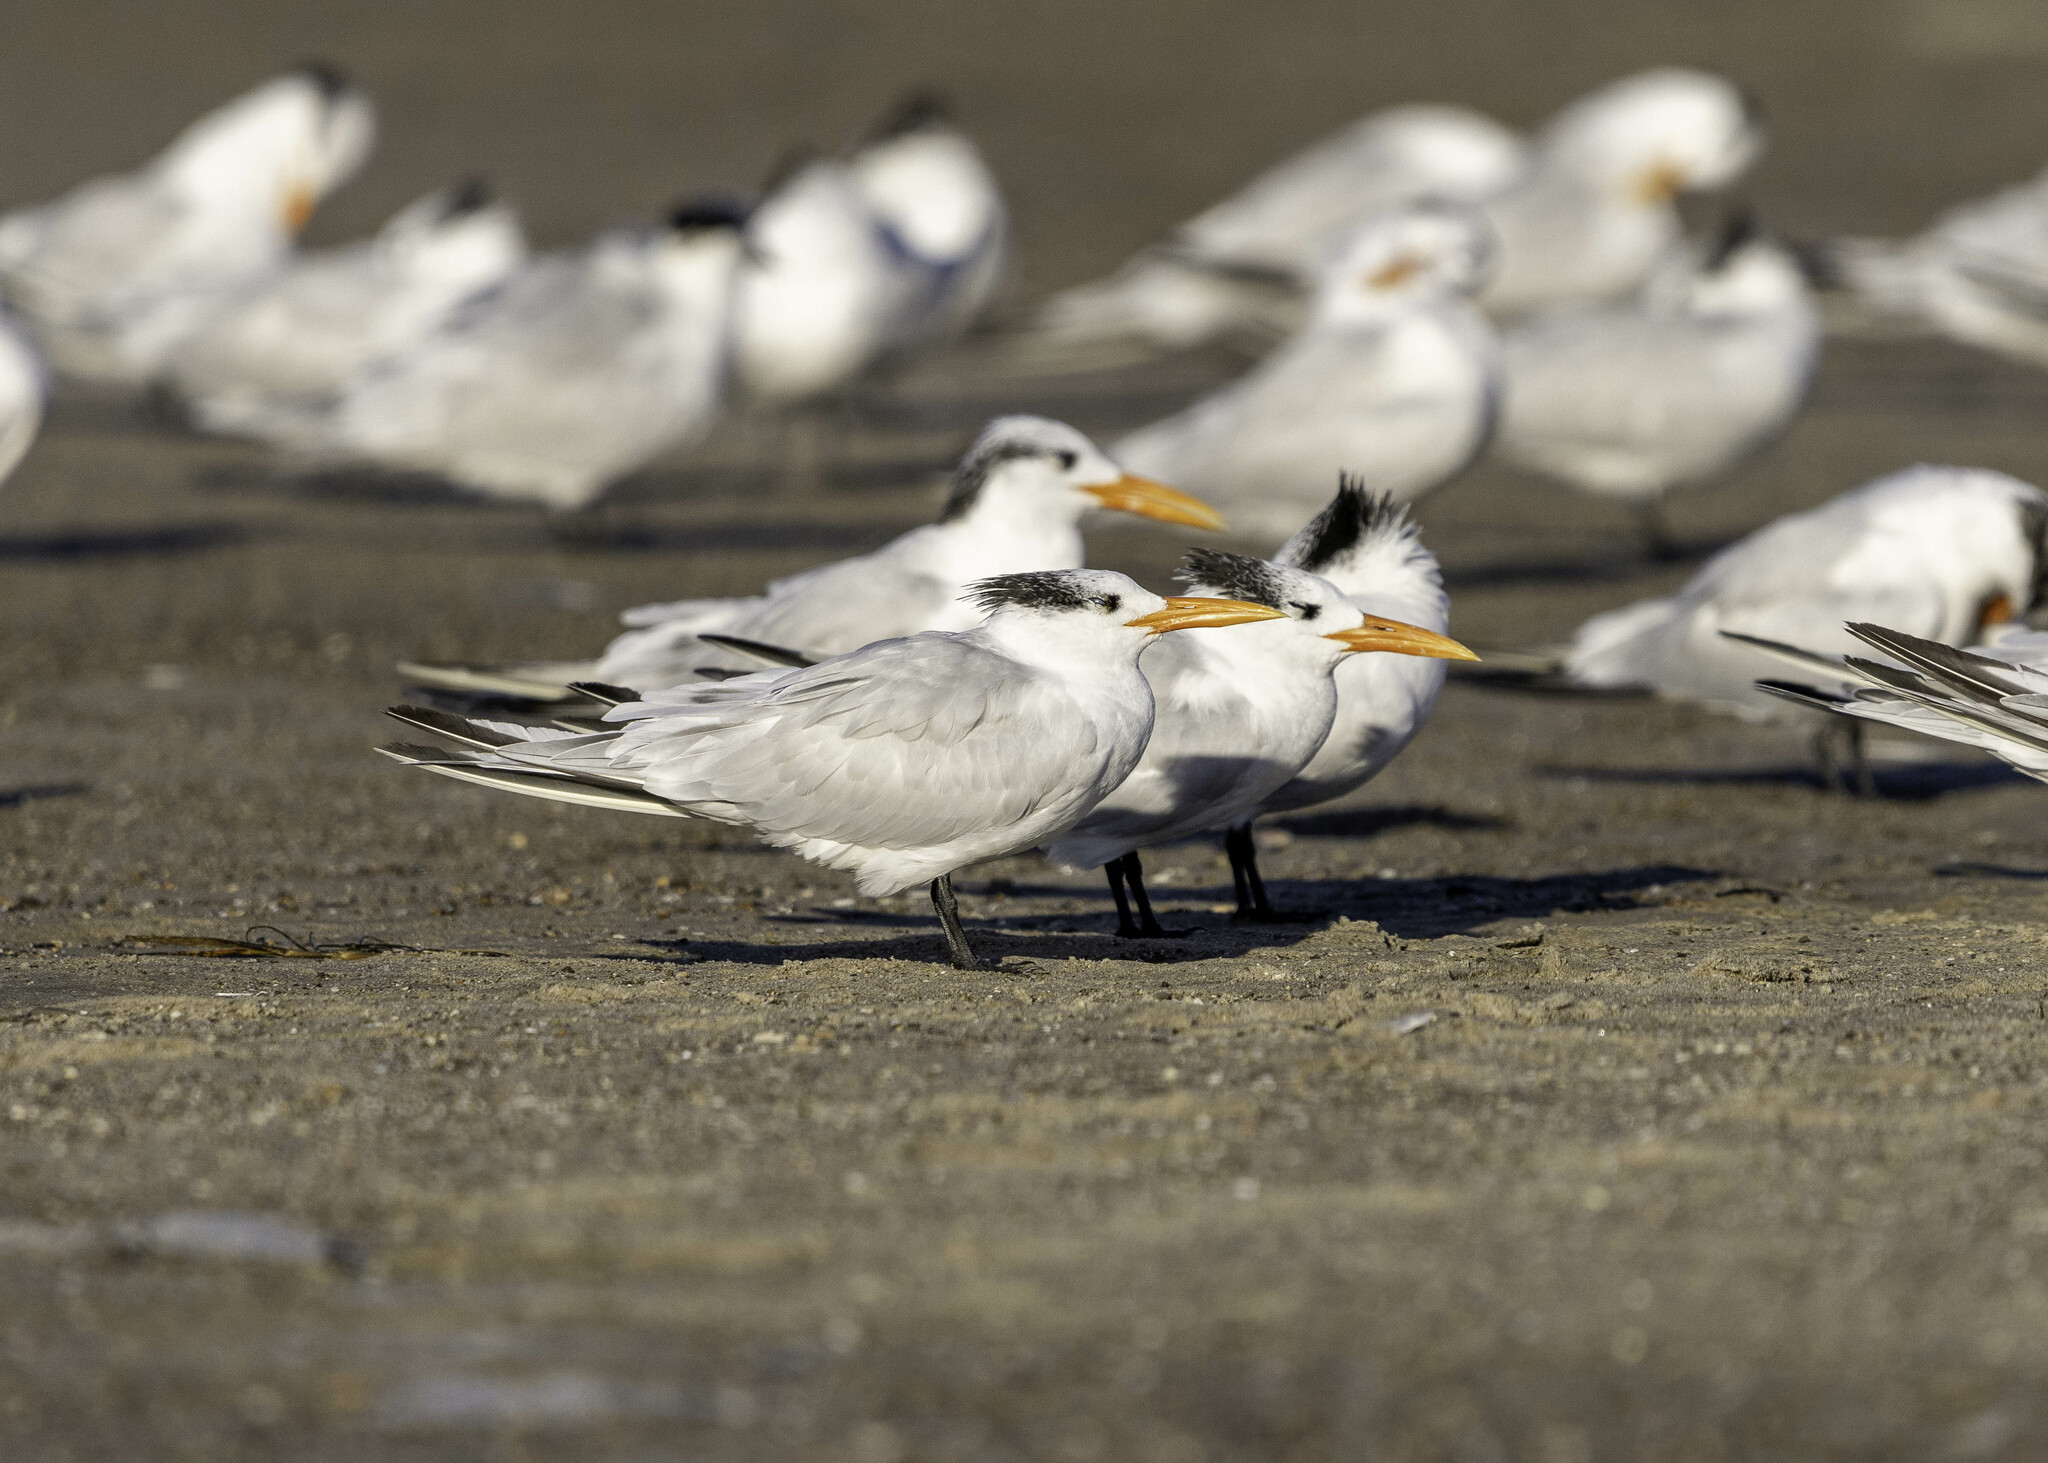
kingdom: Animalia
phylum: Chordata
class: Aves
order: Charadriiformes
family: Laridae
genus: Thalasseus
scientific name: Thalasseus maximus
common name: Royal tern
